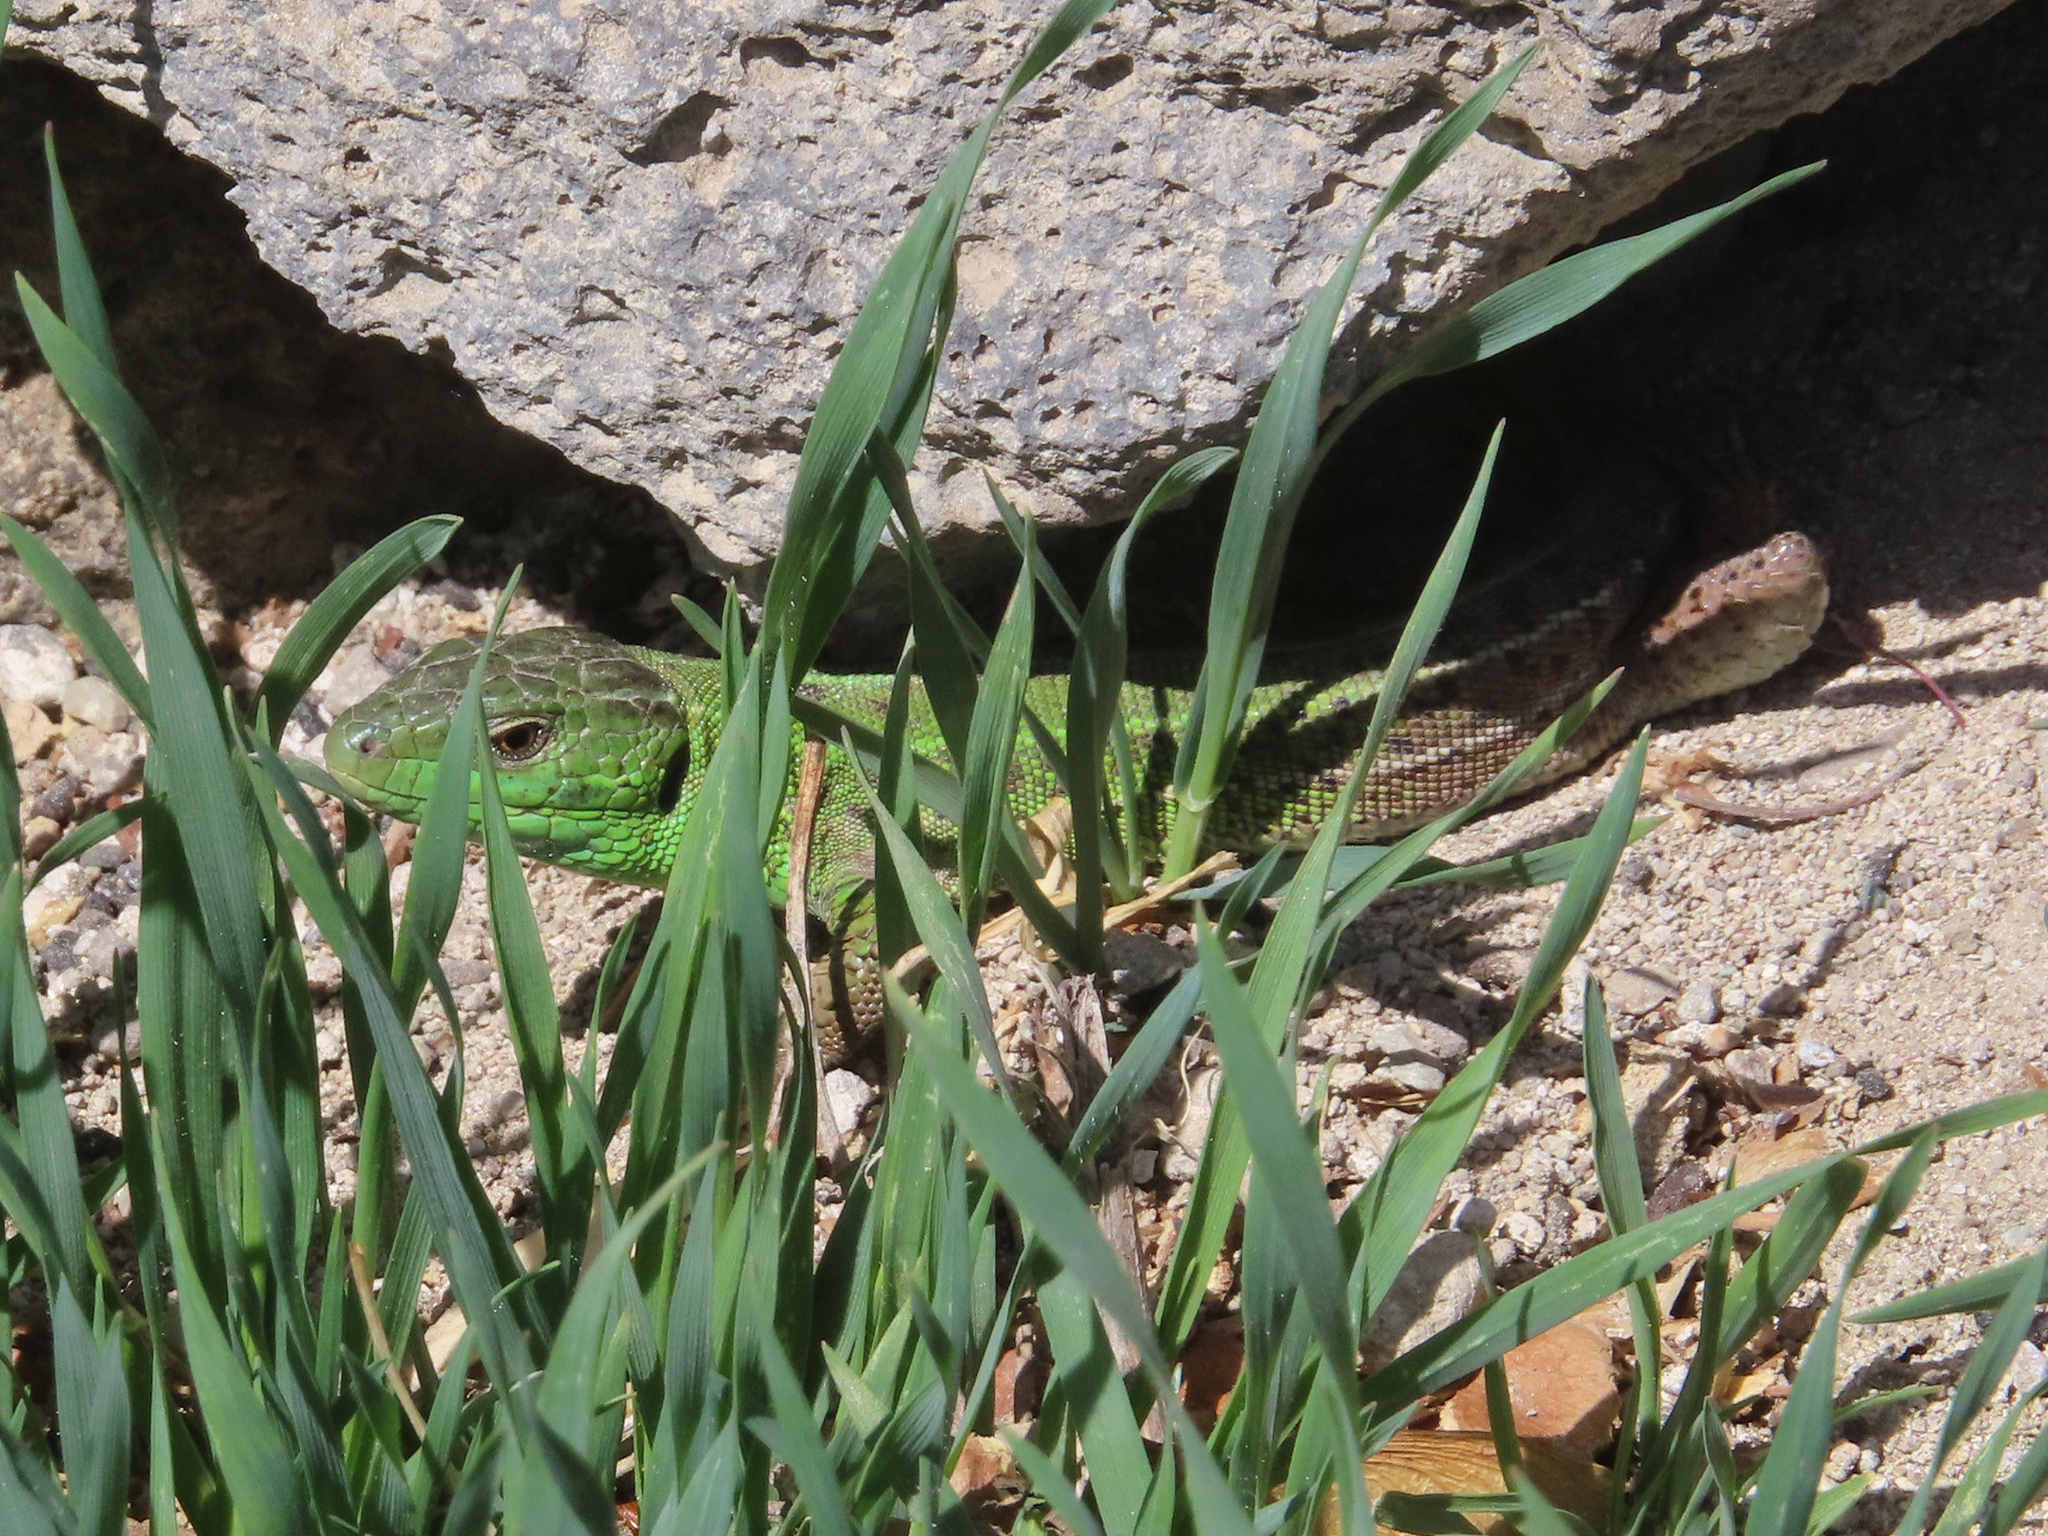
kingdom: Animalia
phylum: Chordata
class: Squamata
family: Lacertidae
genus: Lacerta
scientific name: Lacerta strigata
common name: Caspian green lizard
